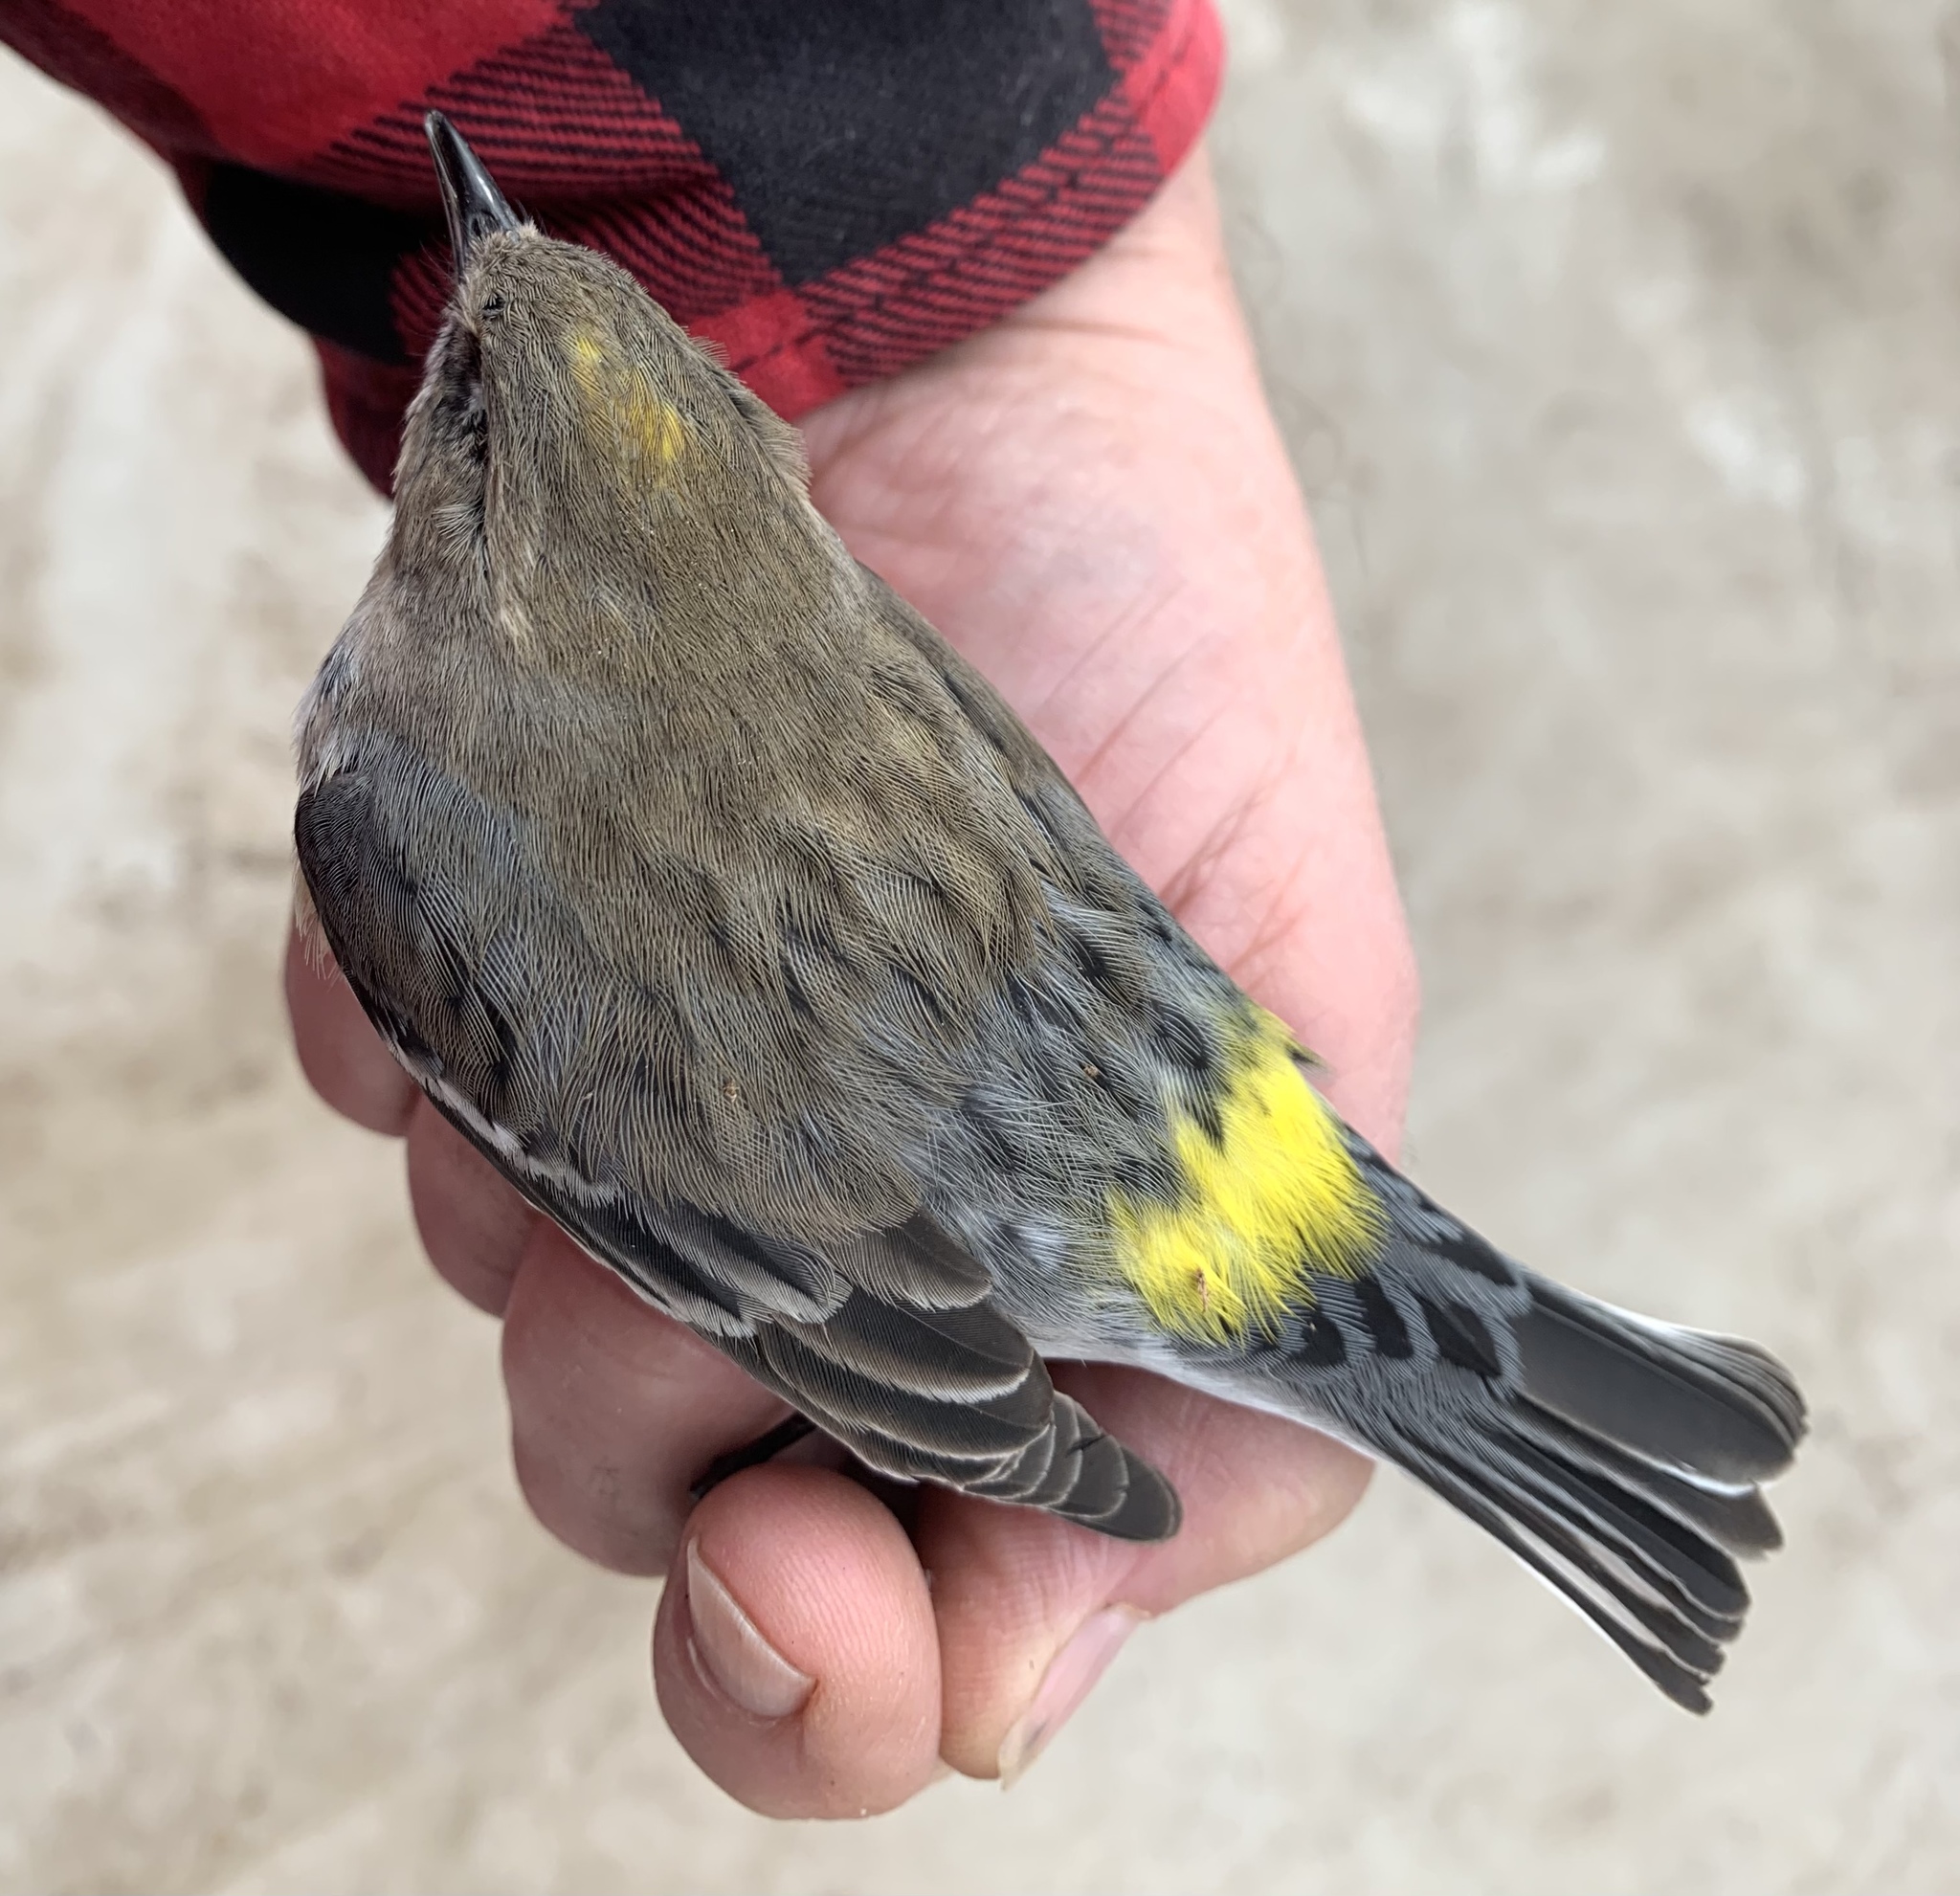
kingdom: Animalia
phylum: Chordata
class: Aves
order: Passeriformes
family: Parulidae
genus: Setophaga
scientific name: Setophaga coronata
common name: Myrtle warbler
